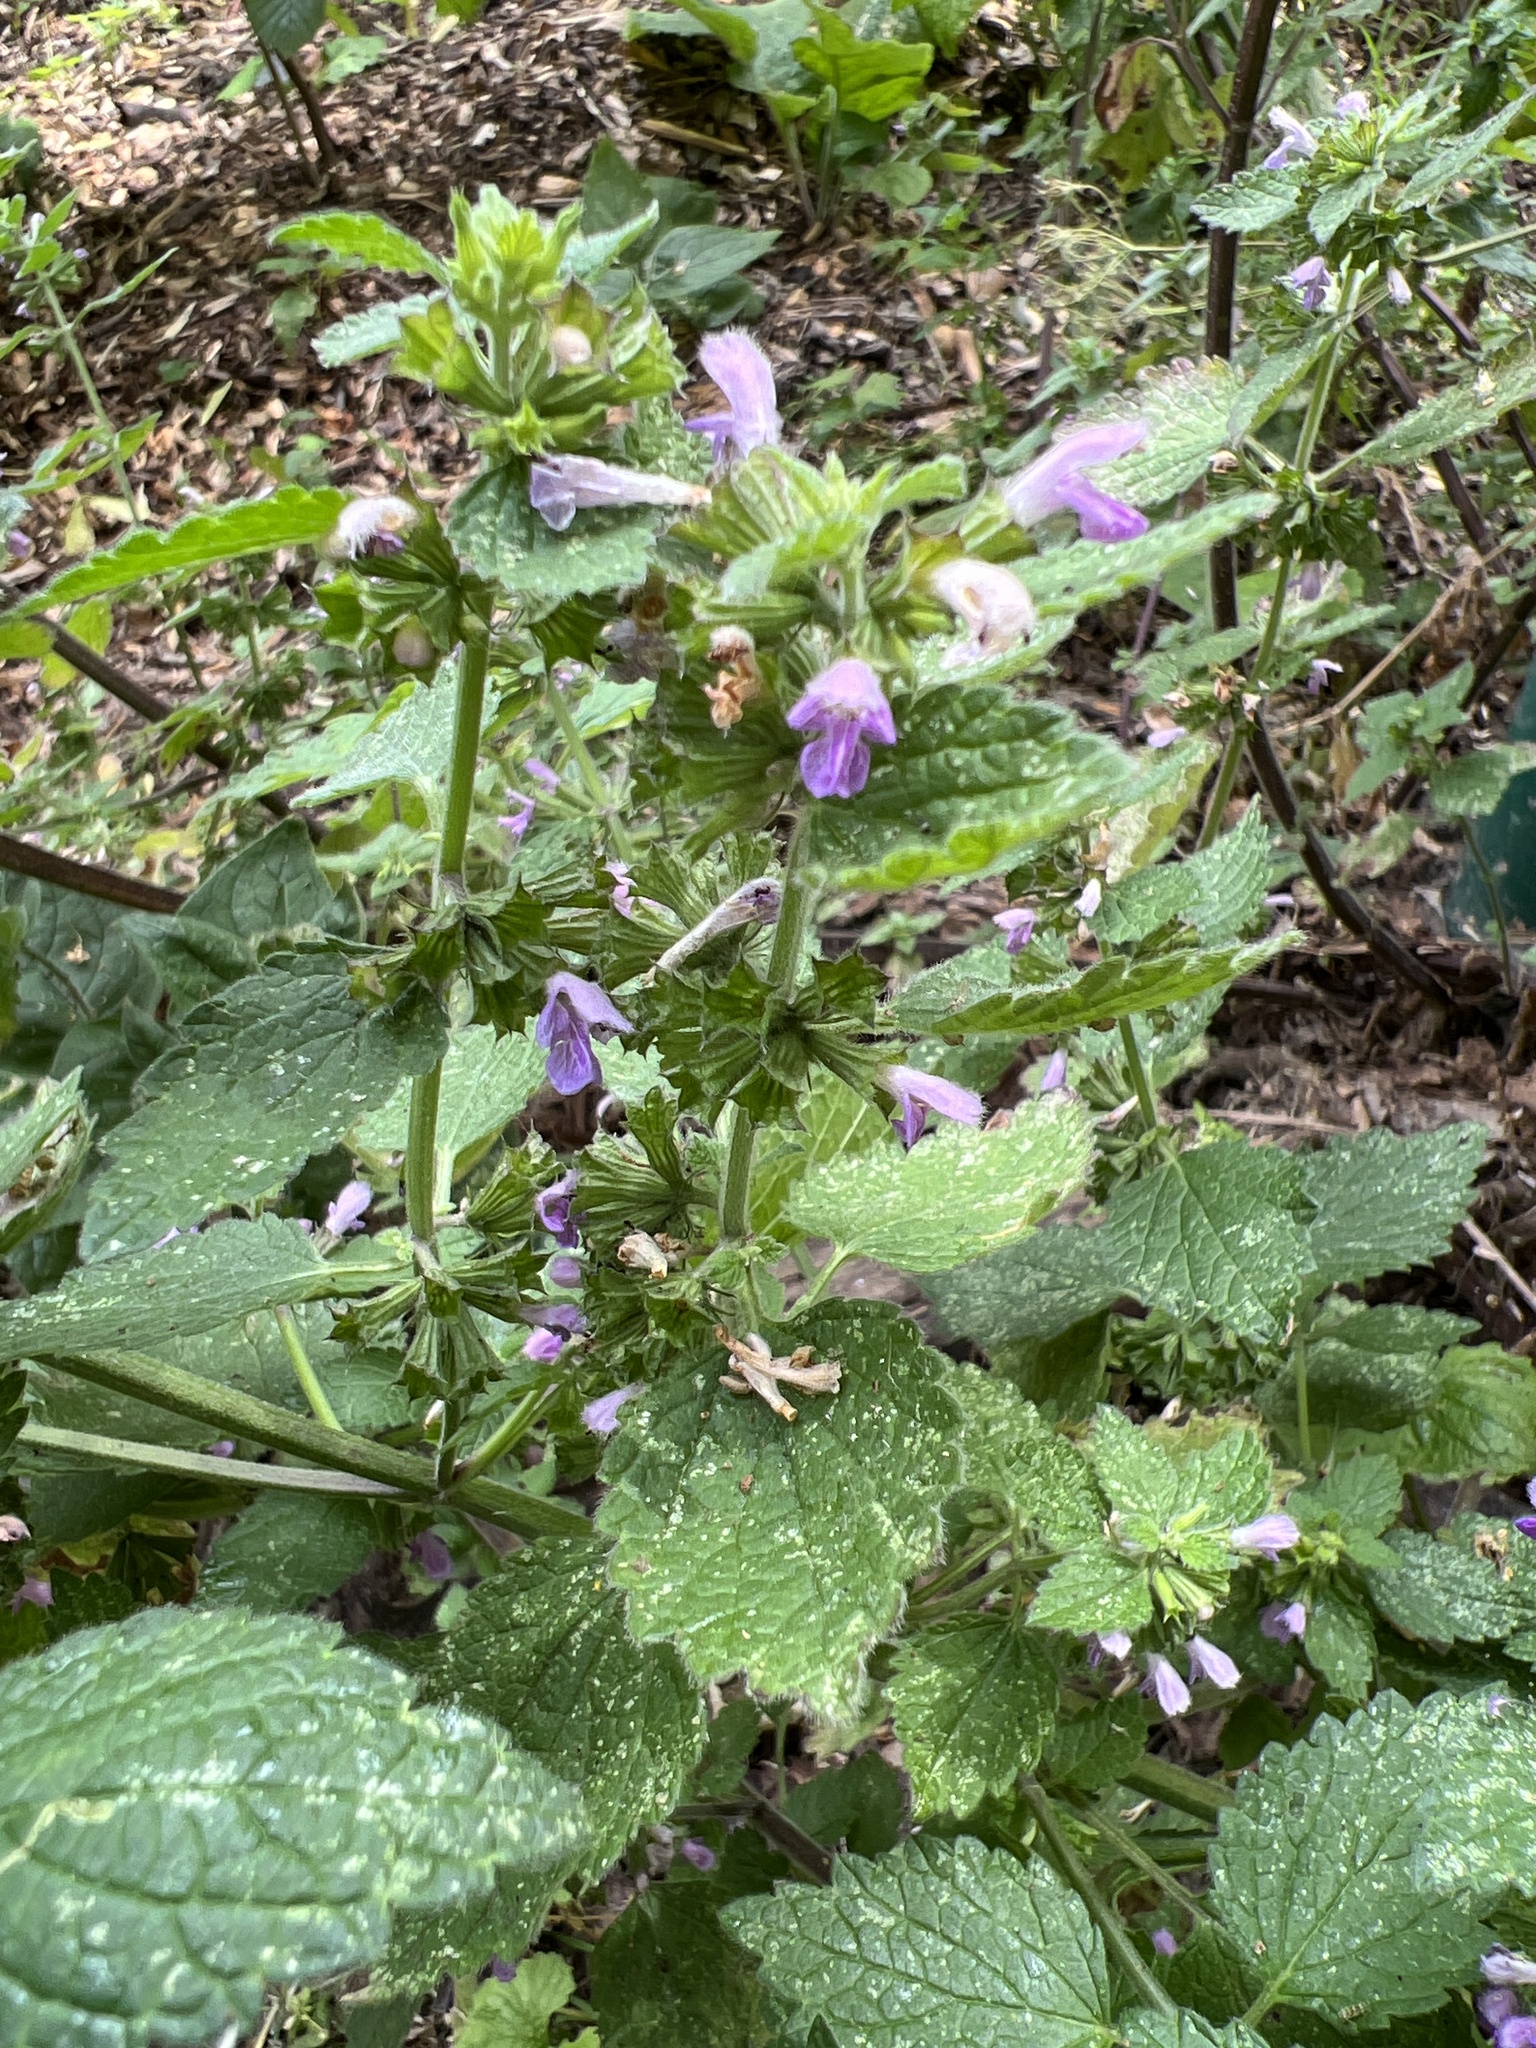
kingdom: Plantae
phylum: Tracheophyta
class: Magnoliopsida
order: Lamiales
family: Lamiaceae
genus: Ballota
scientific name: Ballota nigra
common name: Black horehound
